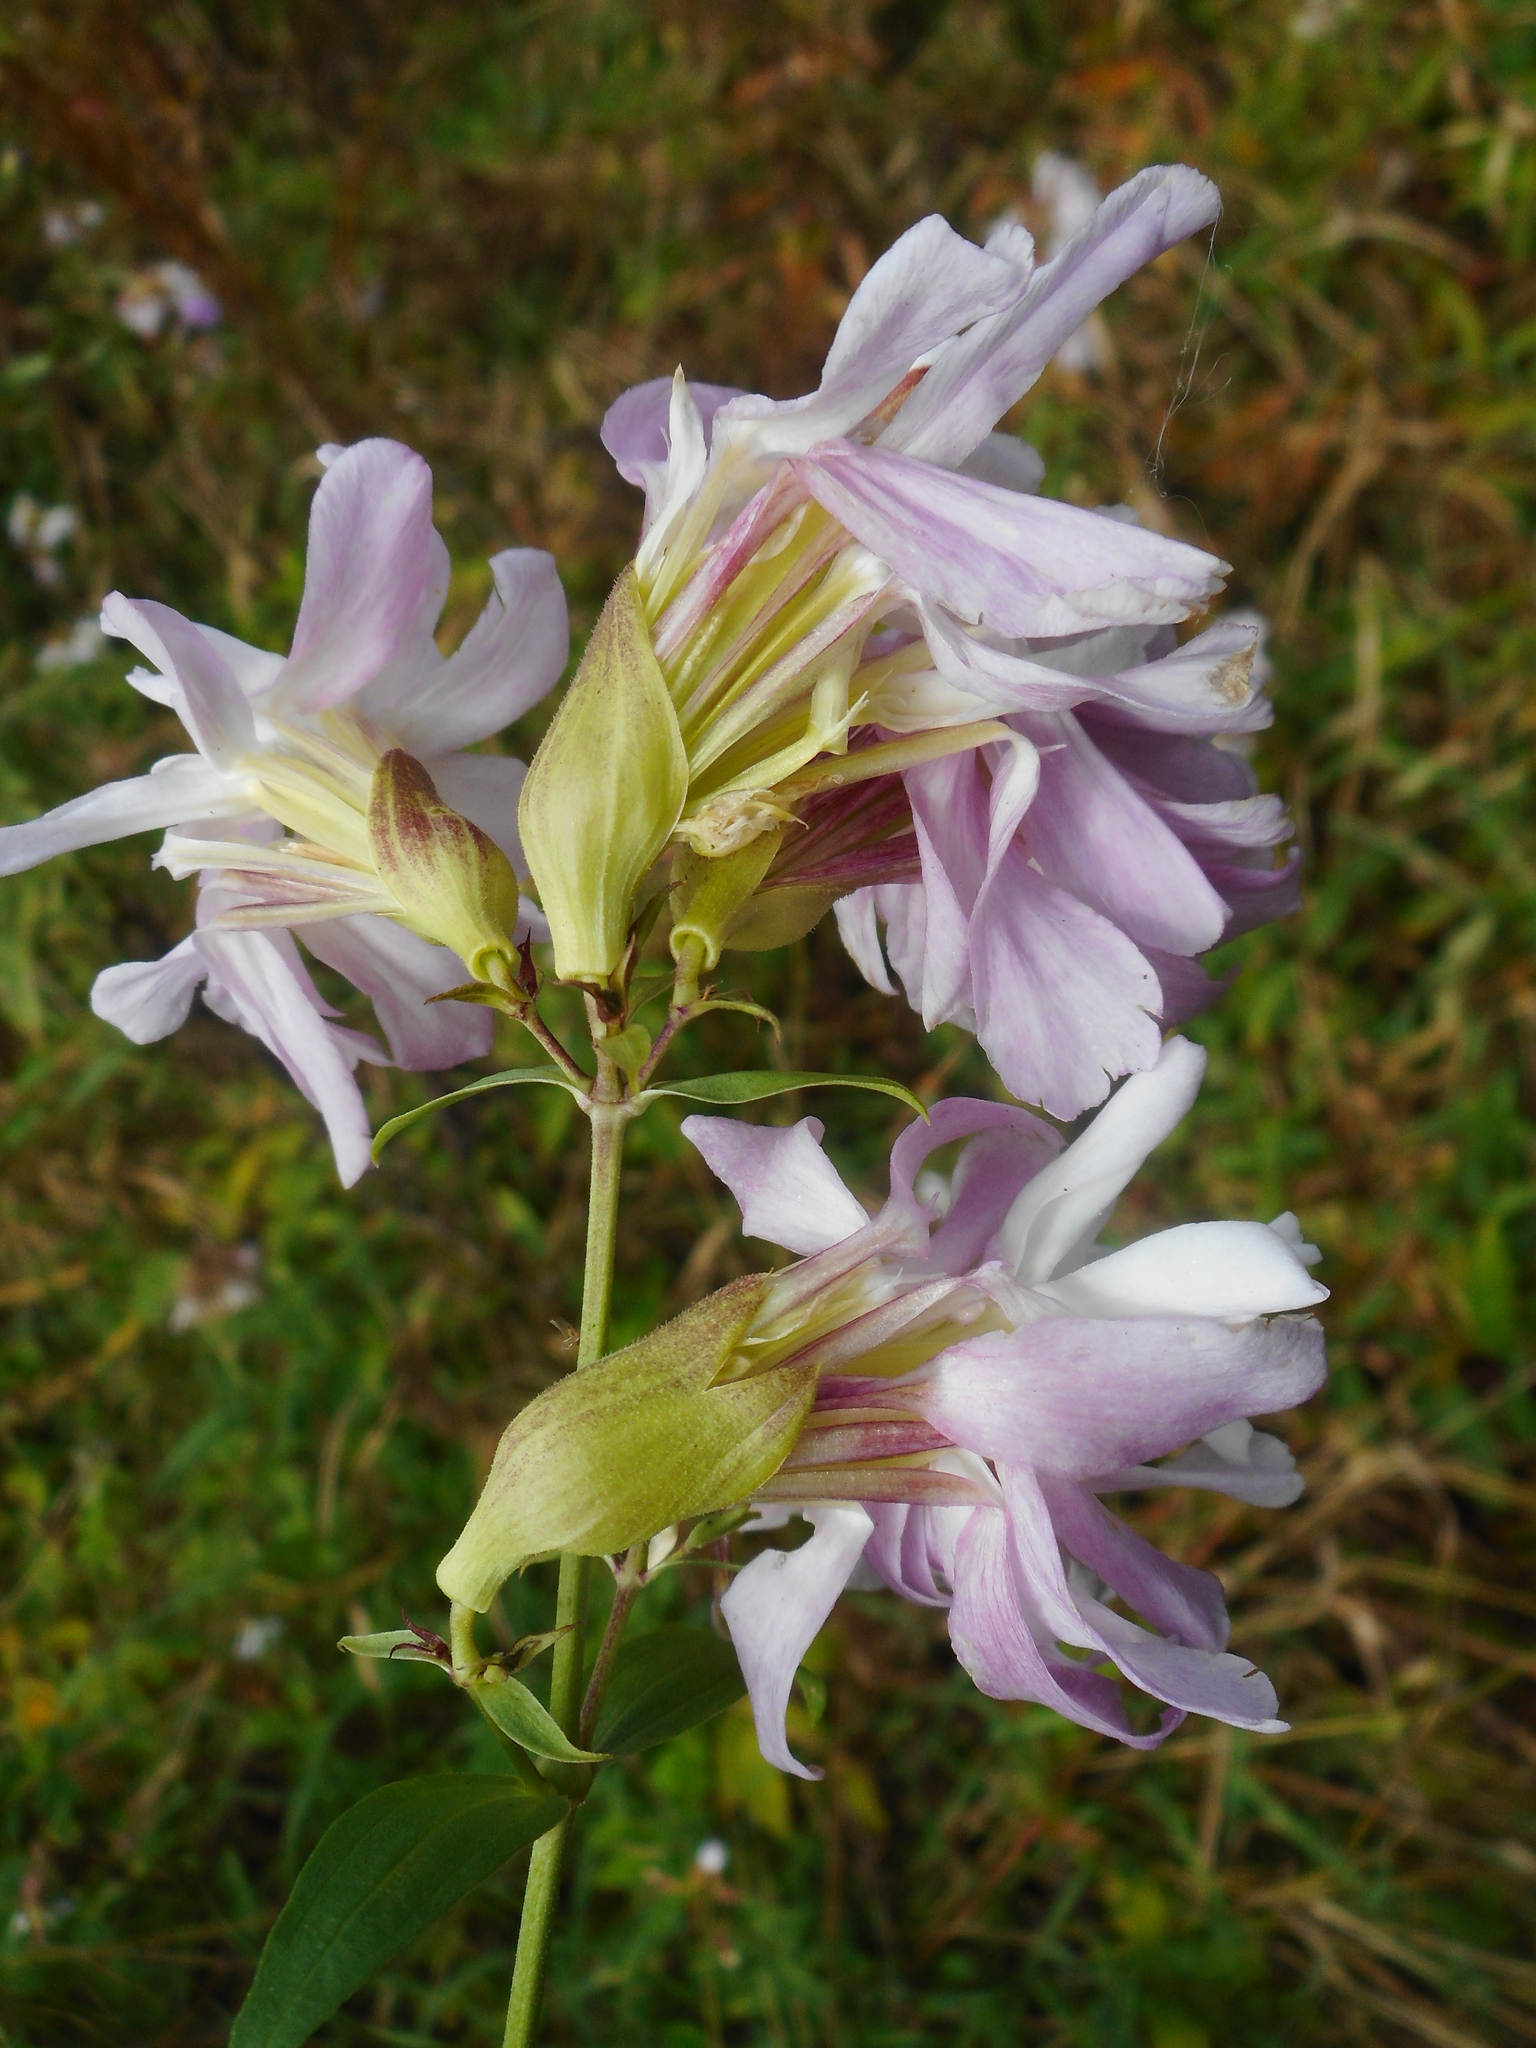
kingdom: Plantae
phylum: Tracheophyta
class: Magnoliopsida
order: Caryophyllales
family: Caryophyllaceae
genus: Saponaria
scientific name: Saponaria officinalis
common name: Soapwort
